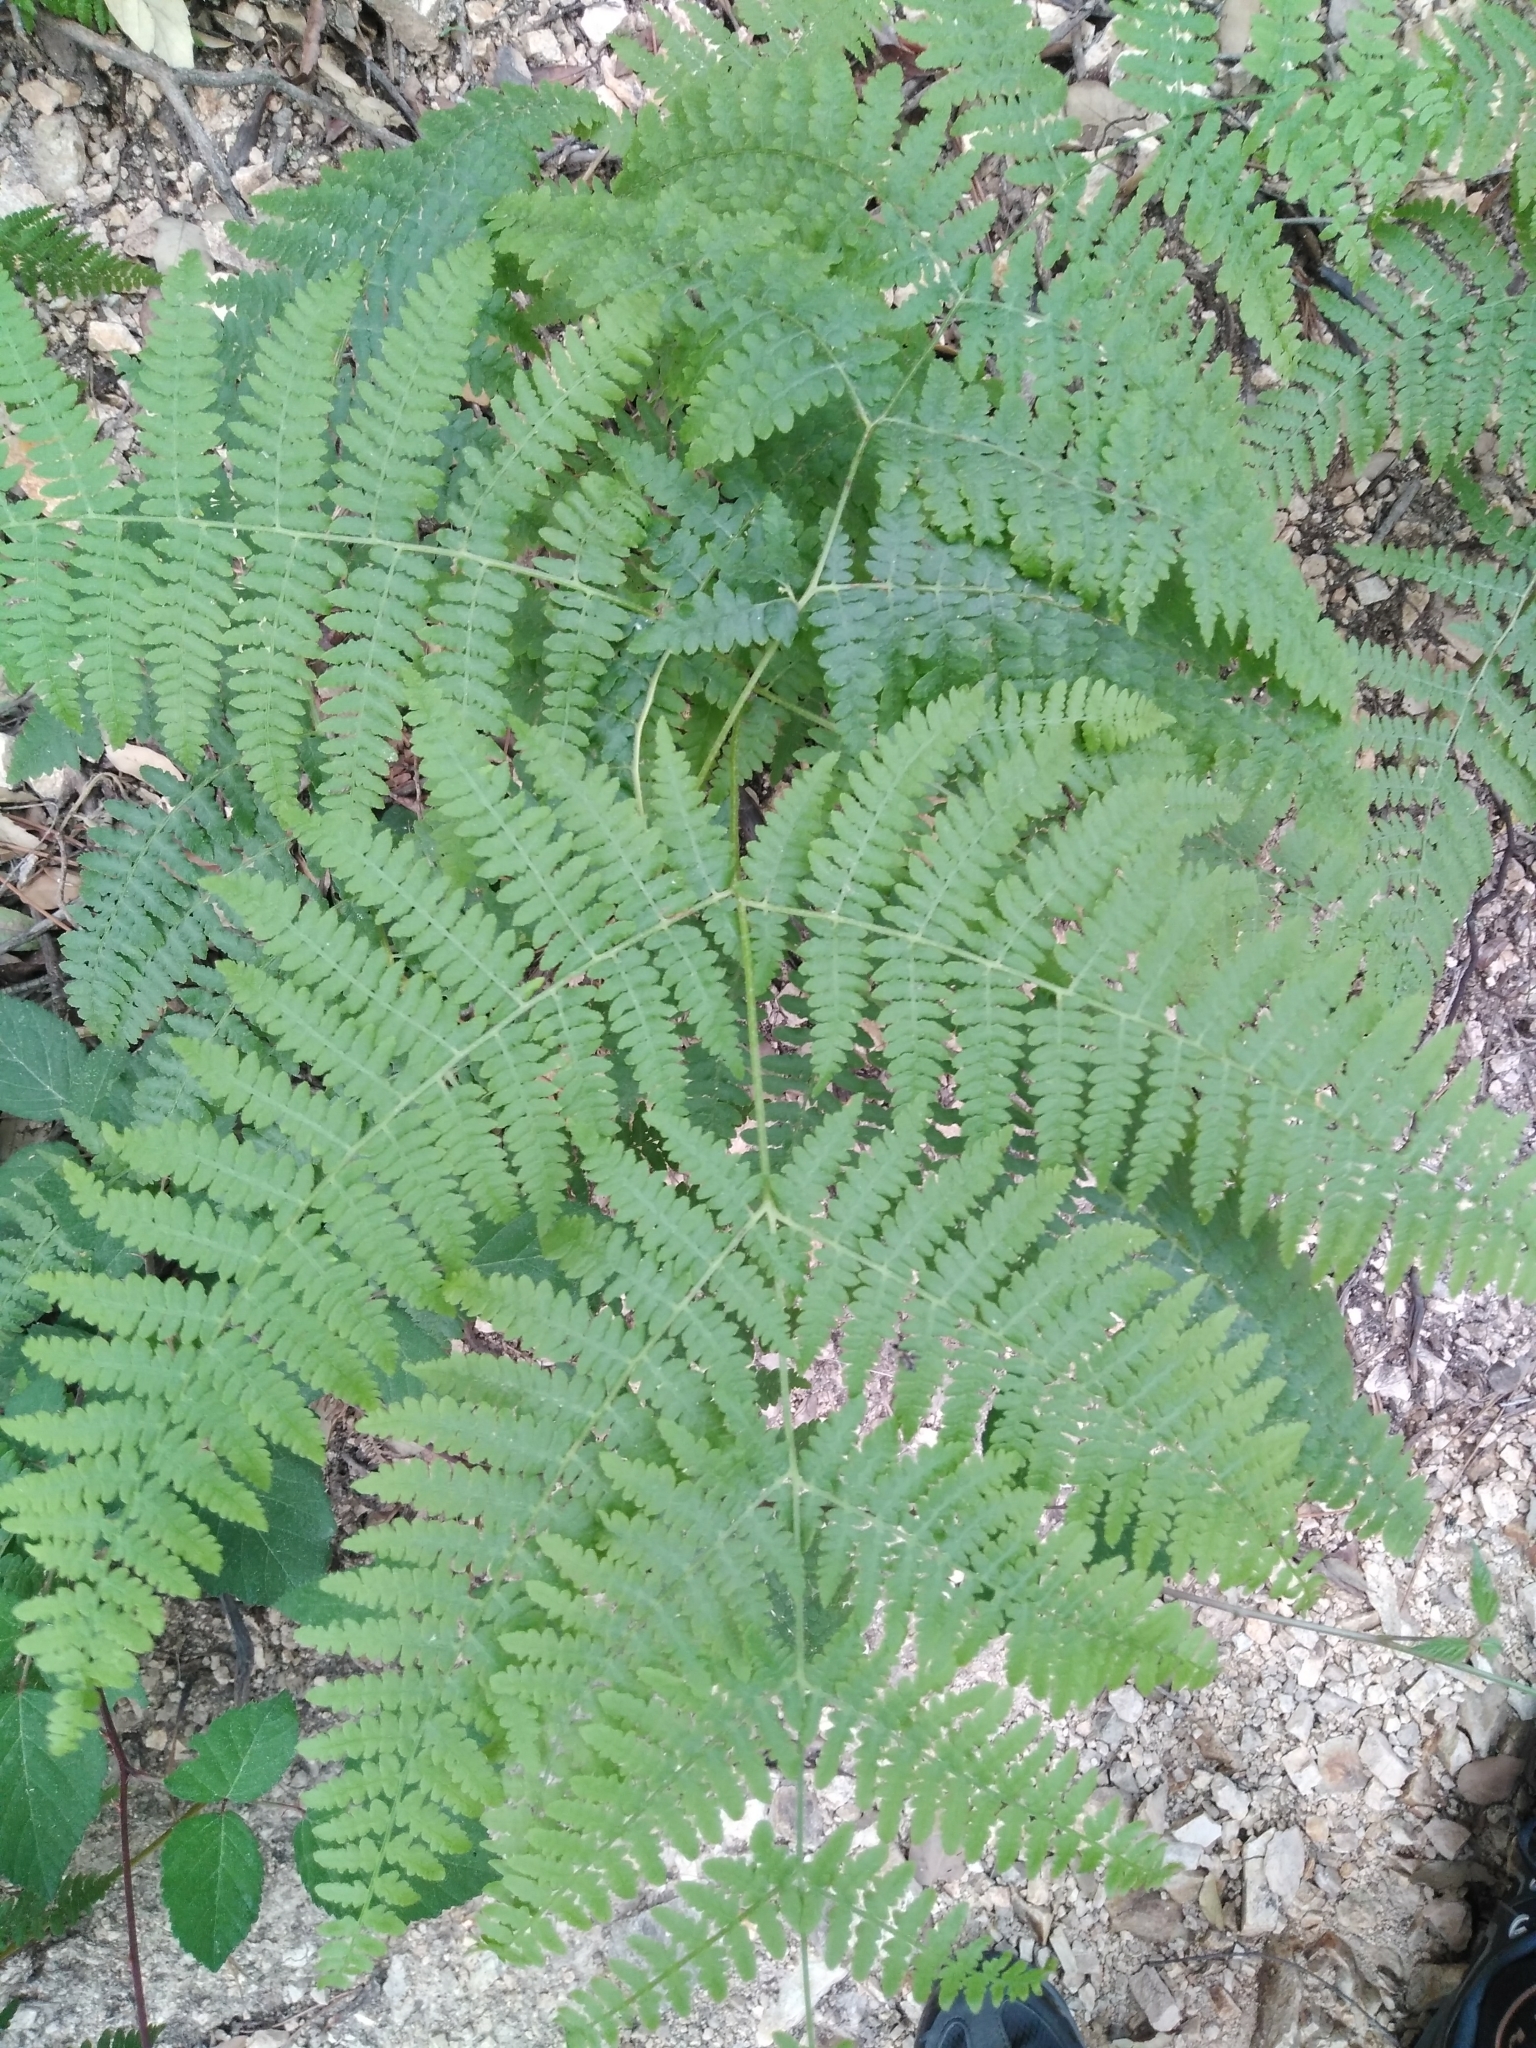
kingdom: Plantae
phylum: Tracheophyta
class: Polypodiopsida
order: Polypodiales
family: Dennstaedtiaceae
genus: Pteridium
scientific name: Pteridium aquilinum
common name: Bracken
